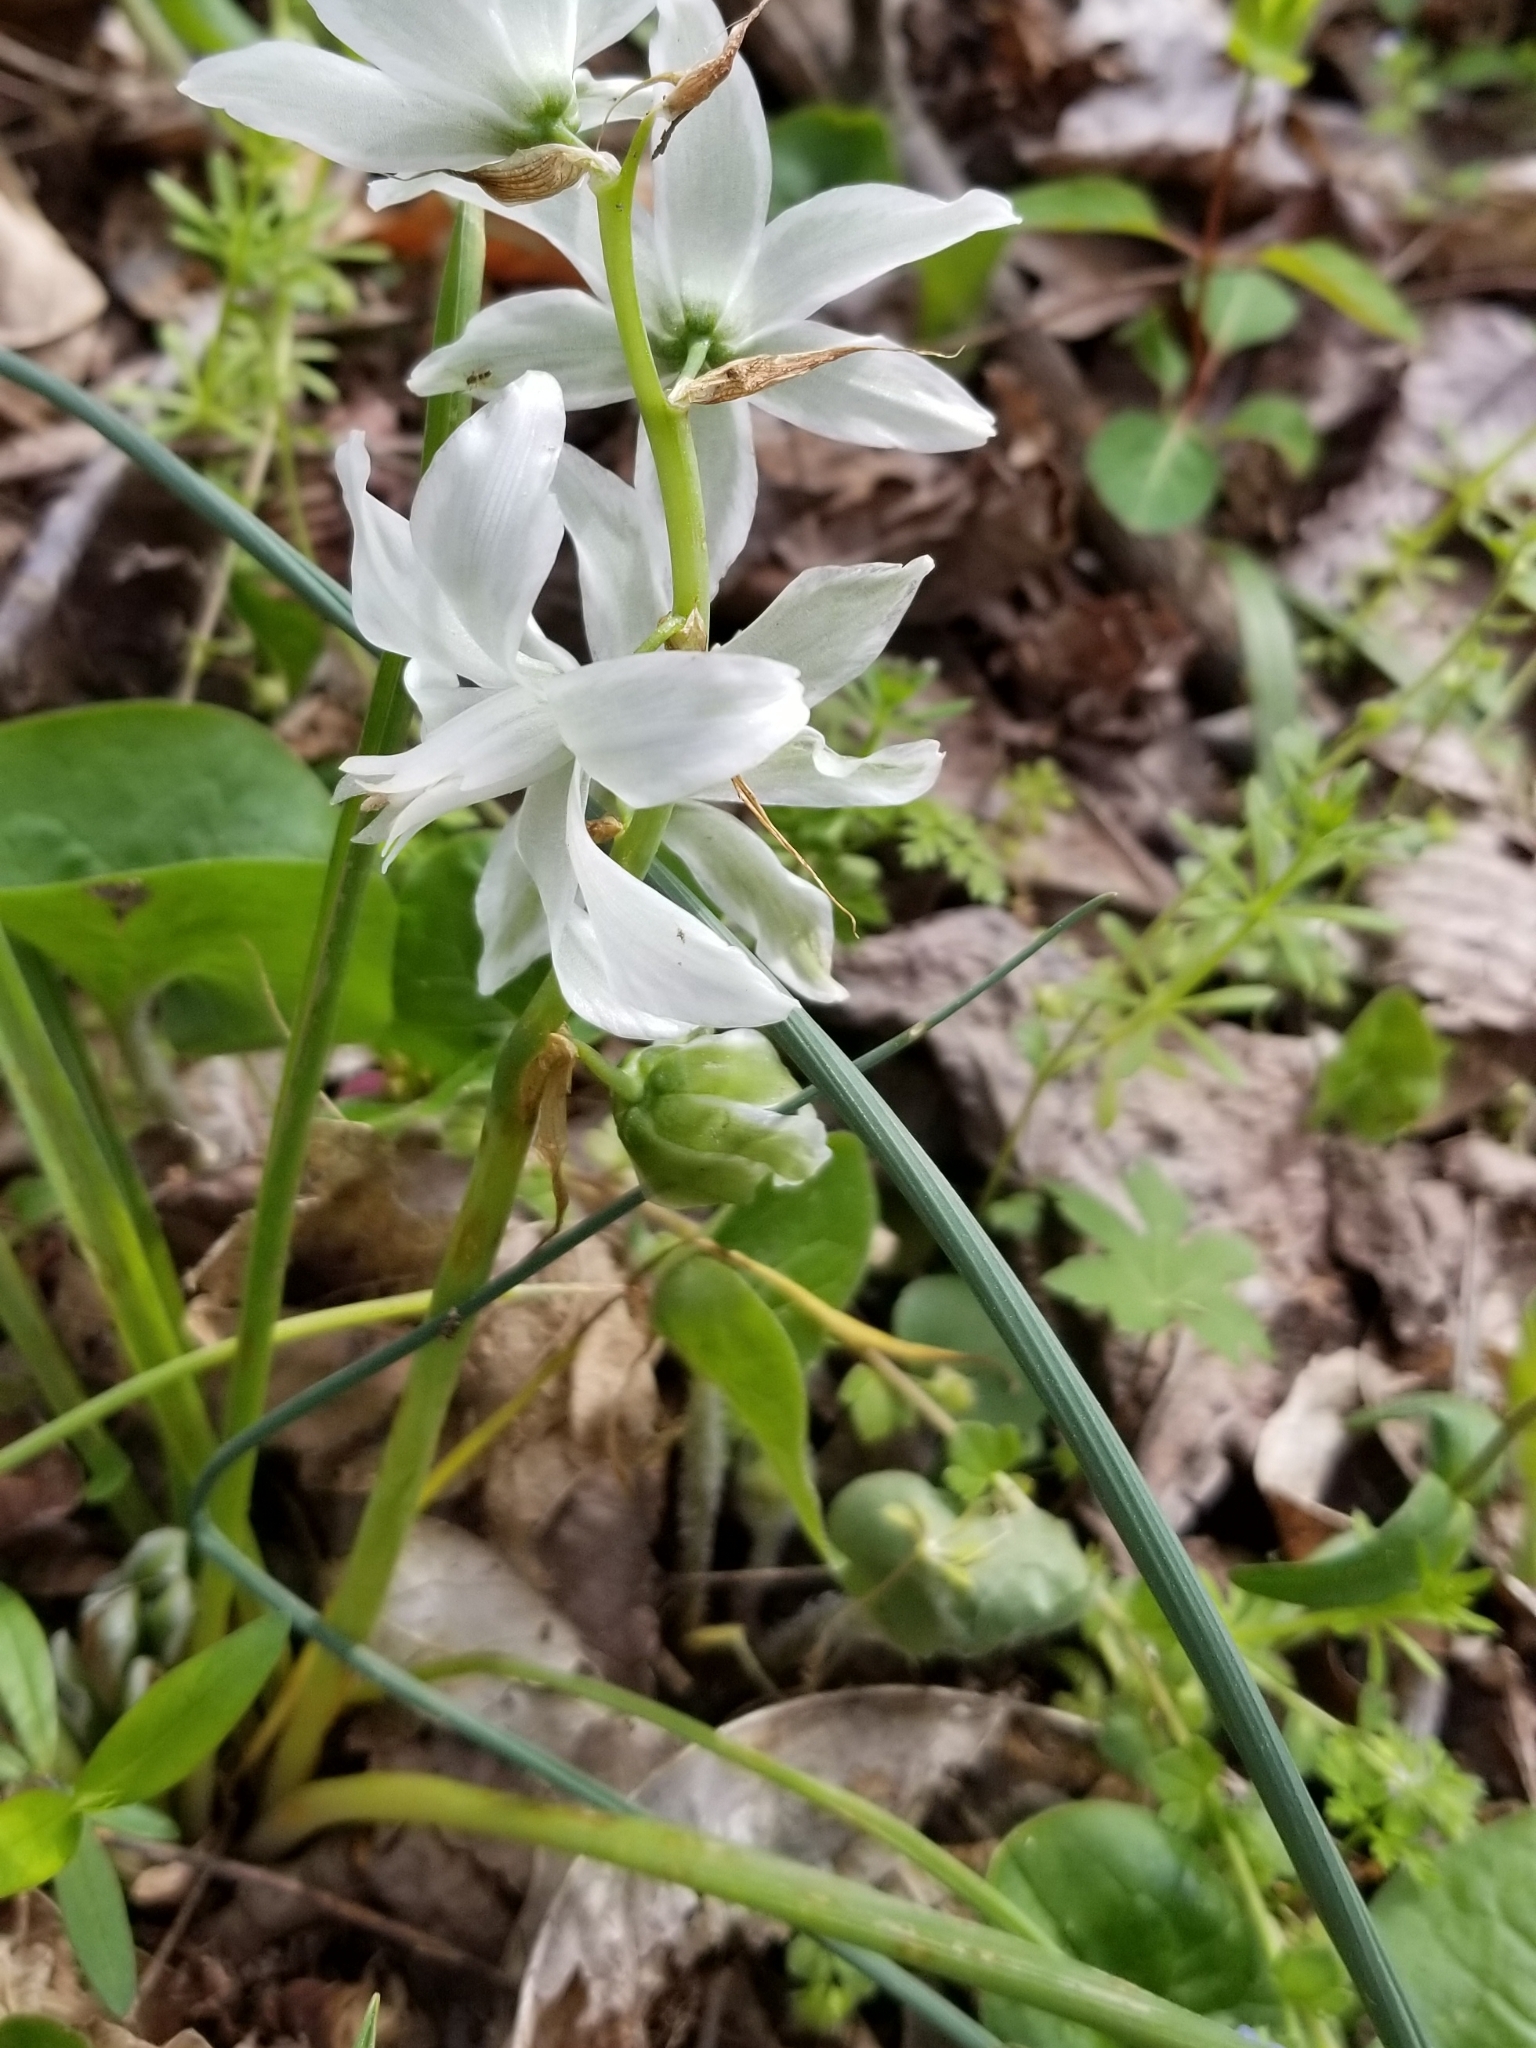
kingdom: Plantae
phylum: Tracheophyta
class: Liliopsida
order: Asparagales
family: Asparagaceae
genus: Ornithogalum
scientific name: Ornithogalum nutans
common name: Drooping star-of-bethlehem
